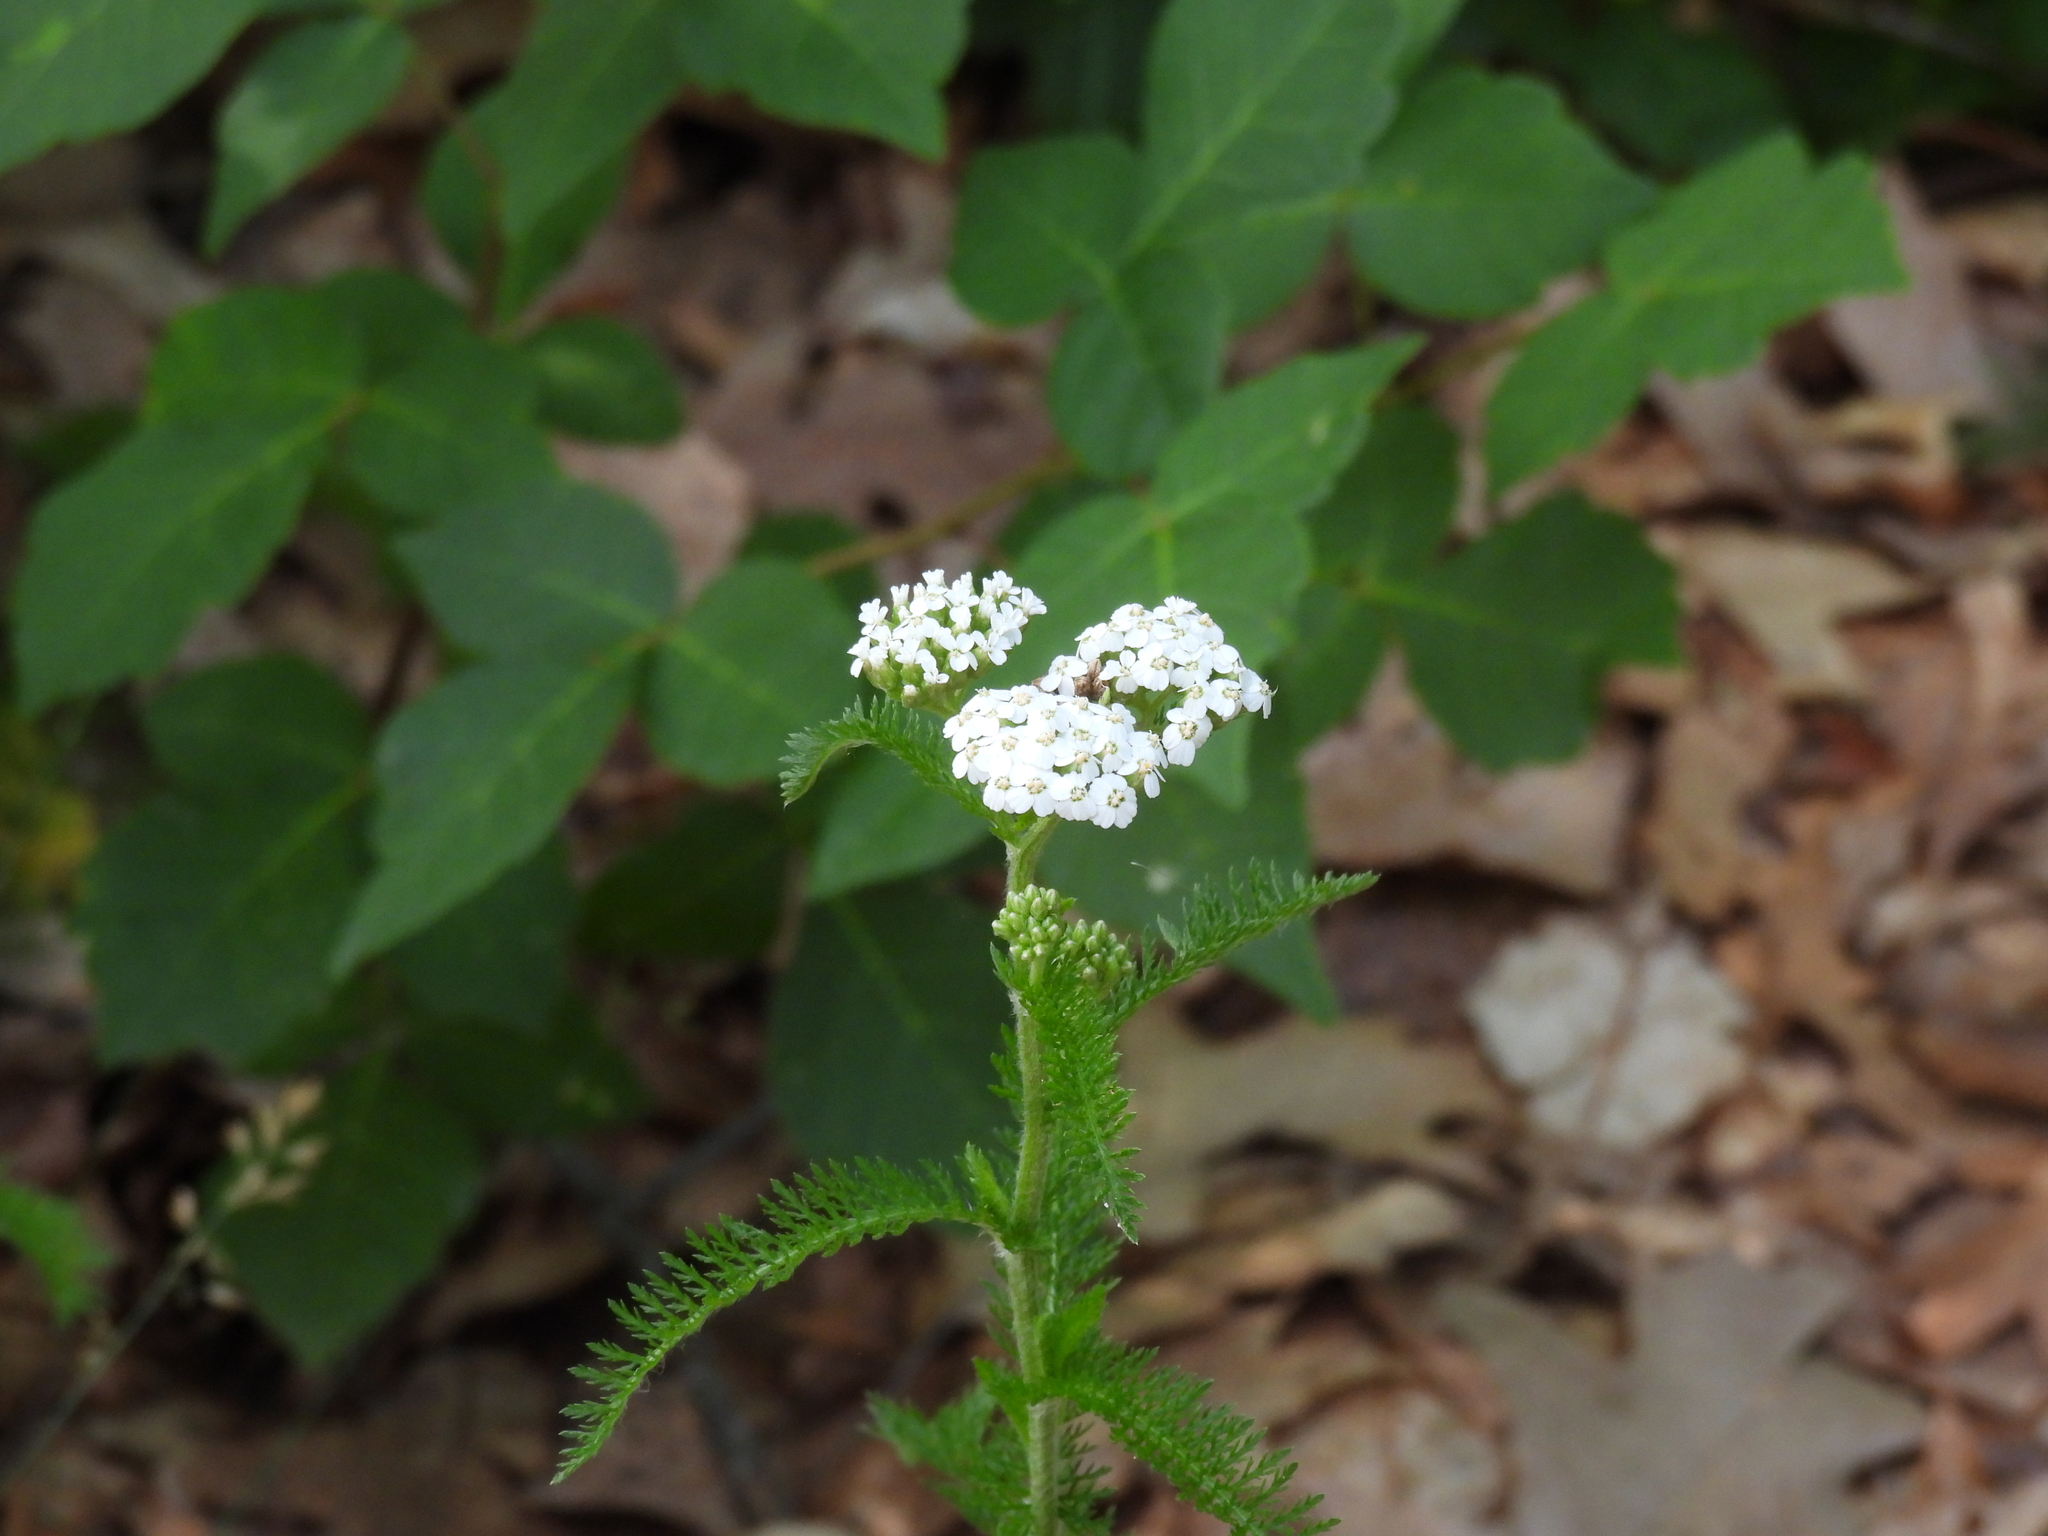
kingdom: Plantae
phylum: Tracheophyta
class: Magnoliopsida
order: Asterales
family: Asteraceae
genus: Achillea
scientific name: Achillea millefolium
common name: Yarrow
